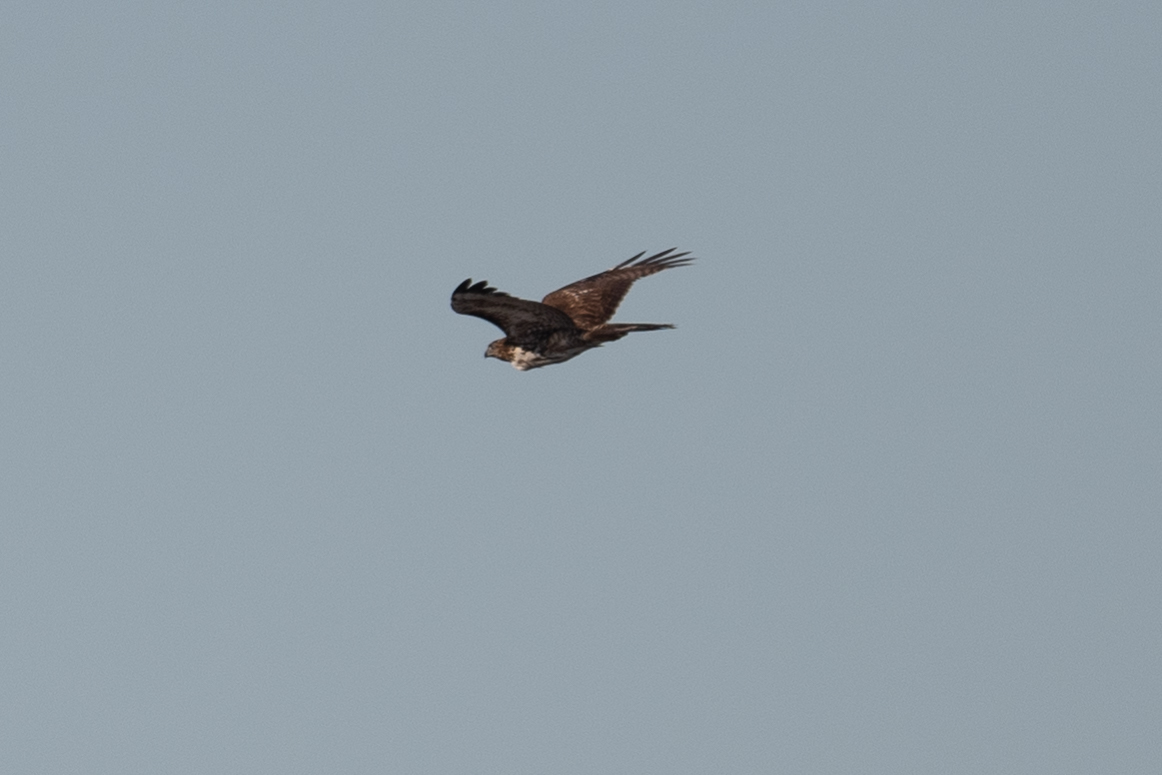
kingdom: Animalia
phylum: Chordata
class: Aves
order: Accipitriformes
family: Accipitridae
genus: Buteo
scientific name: Buteo jamaicensis
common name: Red-tailed hawk
